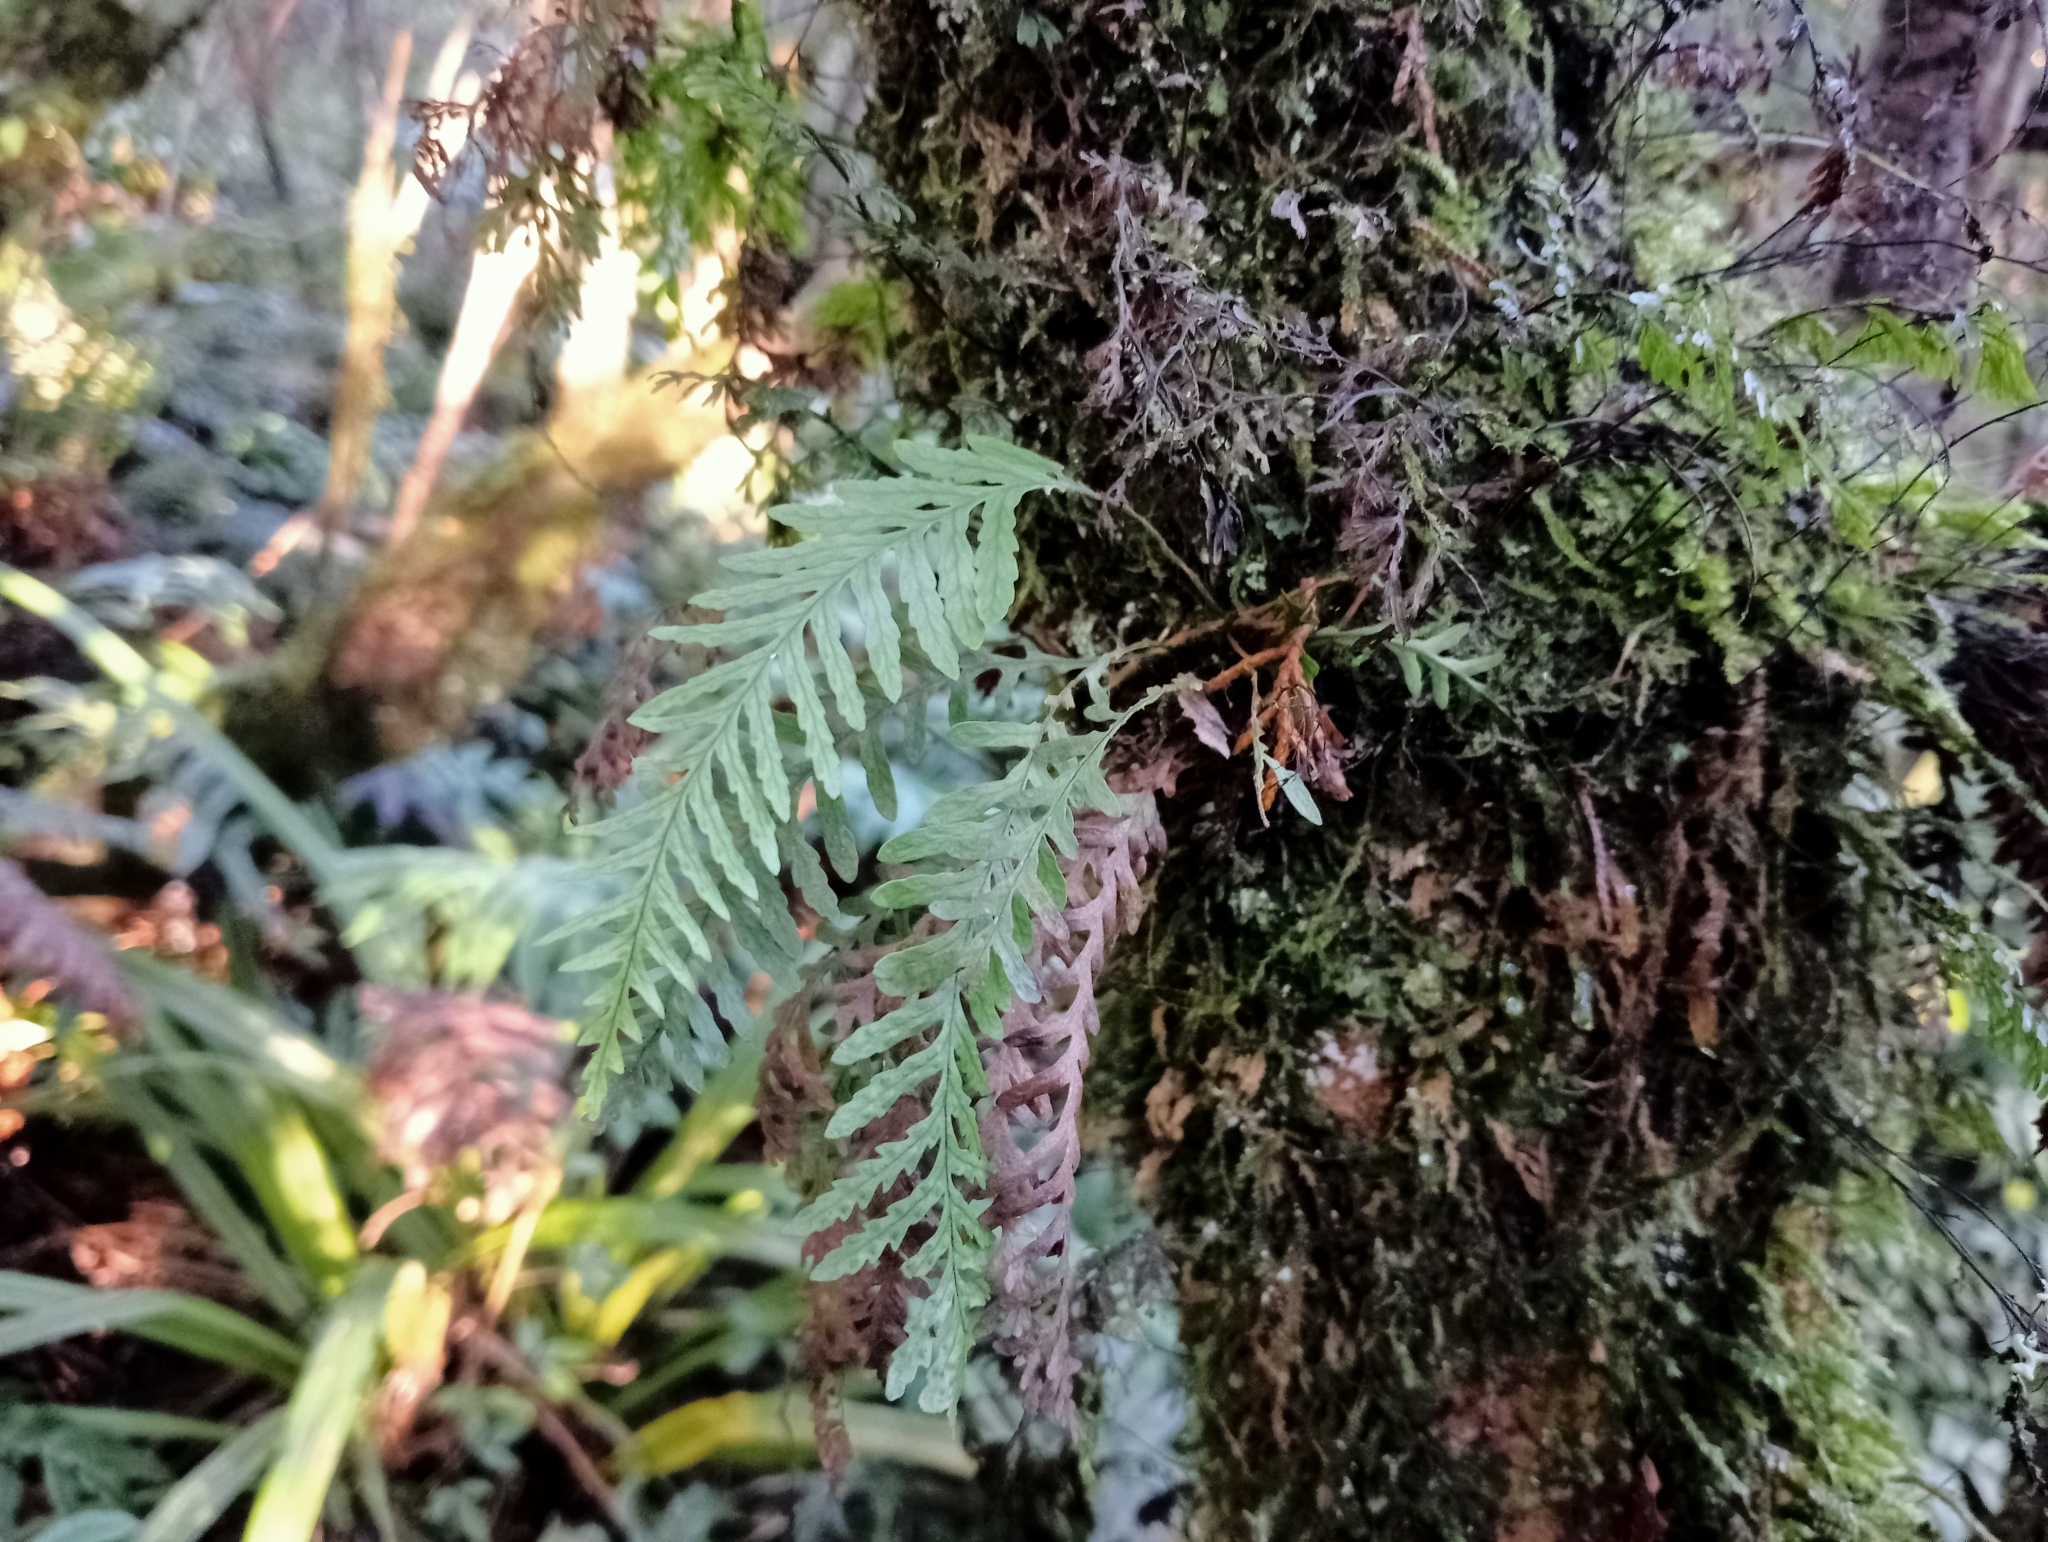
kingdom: Plantae
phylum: Tracheophyta
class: Polypodiopsida
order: Polypodiales
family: Polypodiaceae
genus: Notogrammitis
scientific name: Notogrammitis heterophylla
